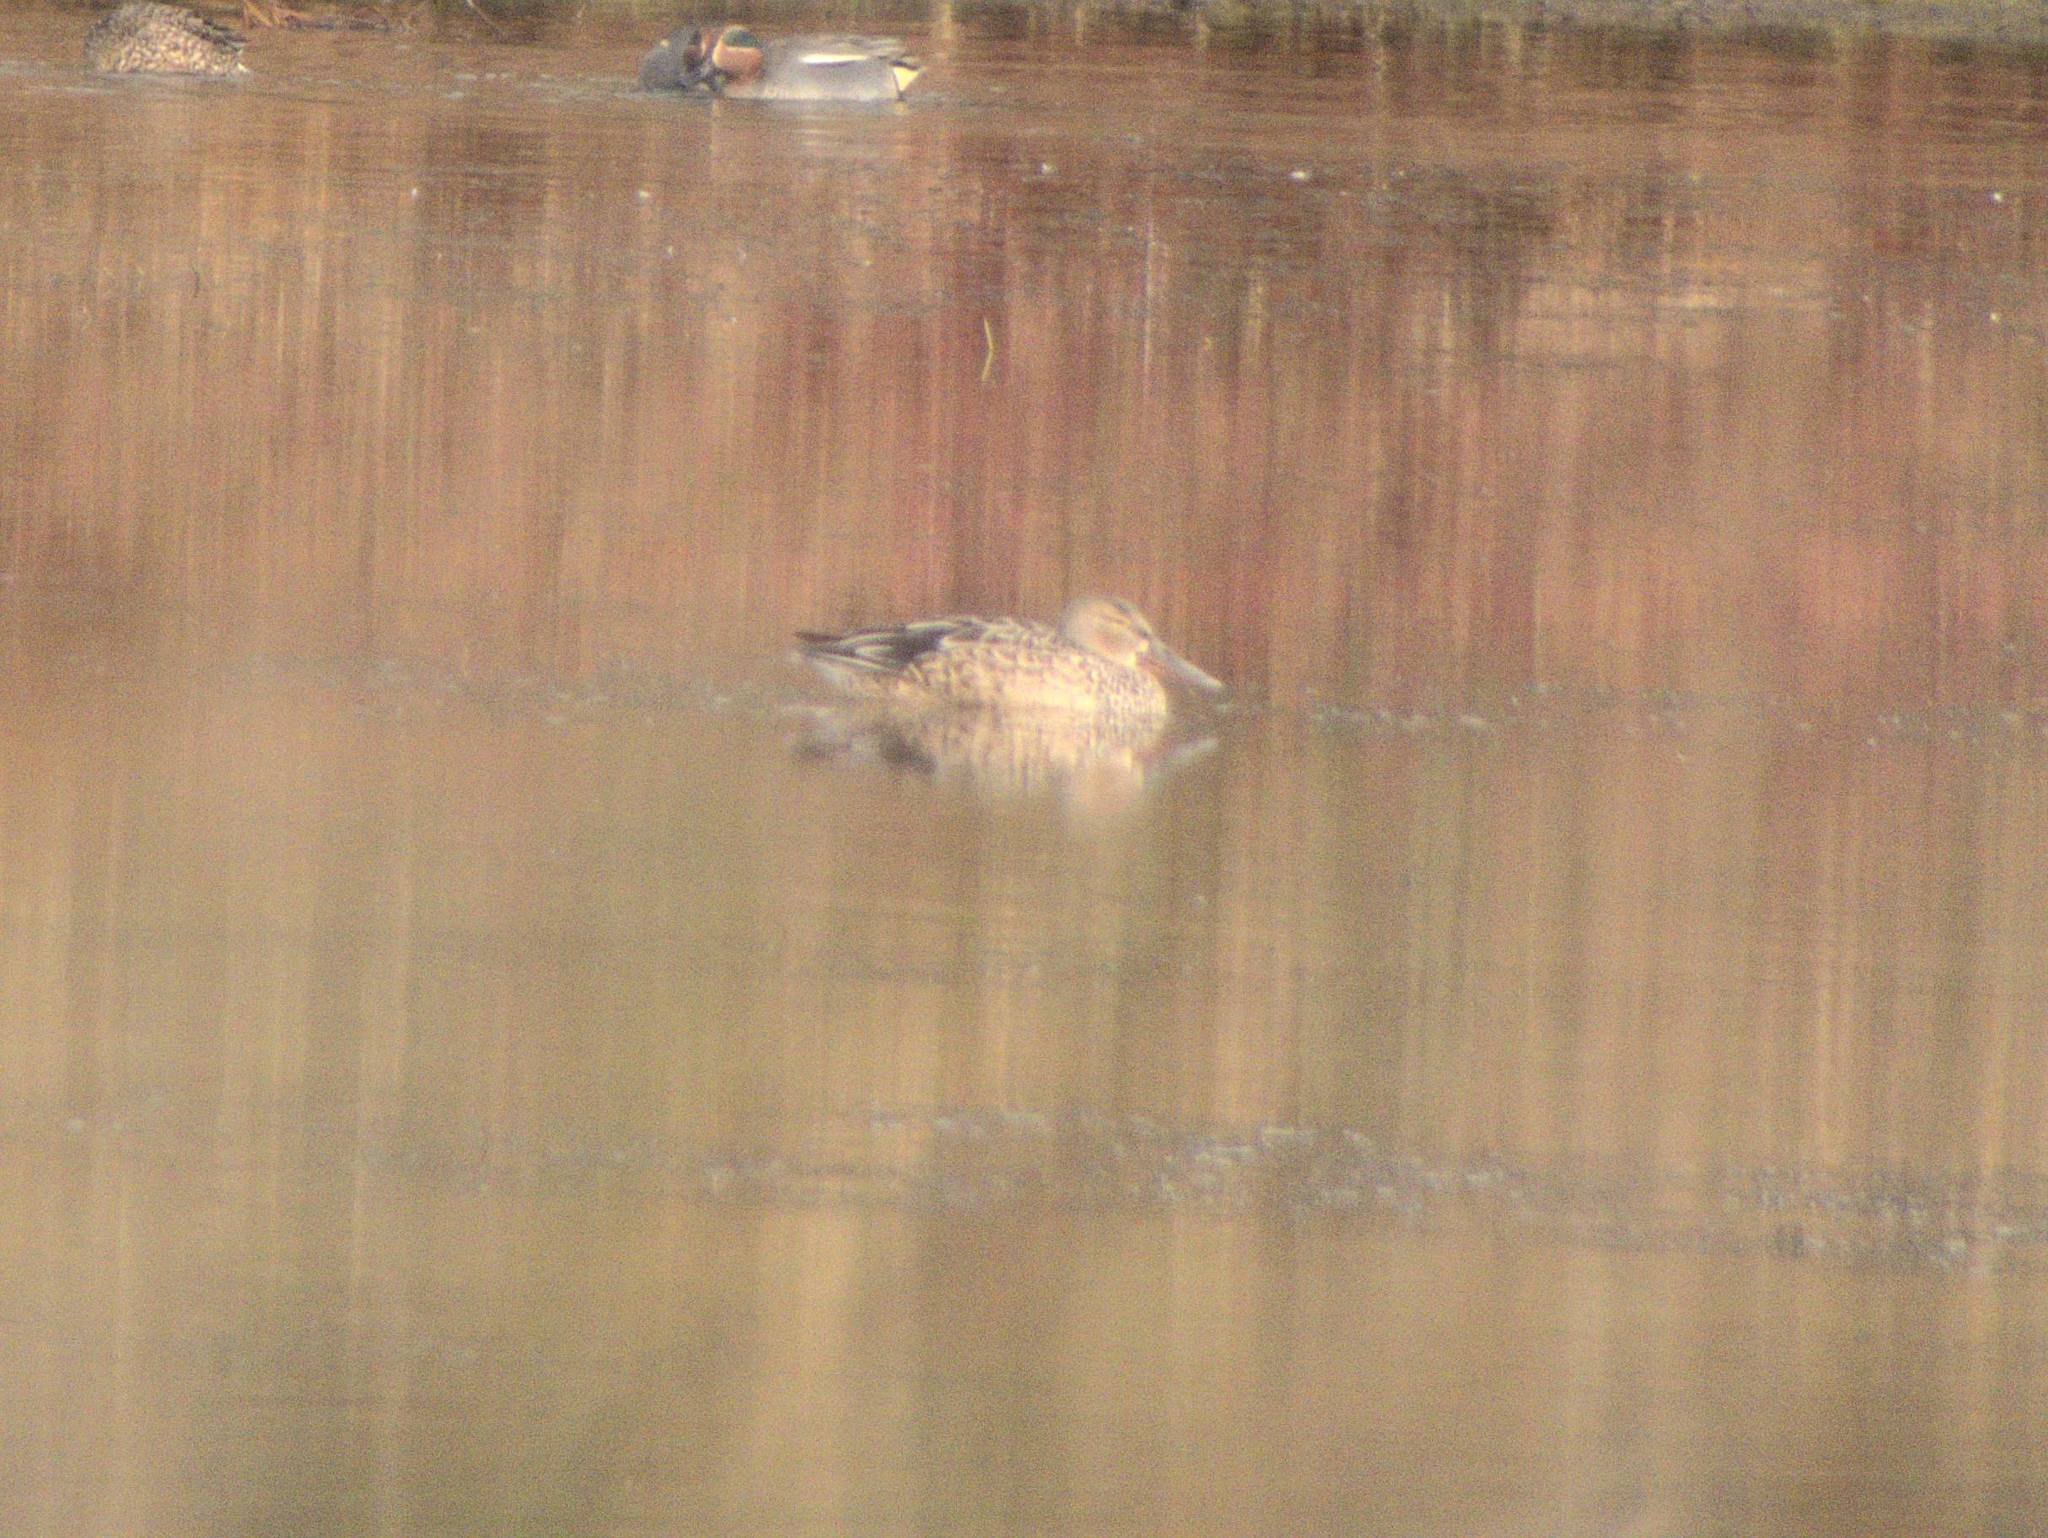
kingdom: Animalia
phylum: Chordata
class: Aves
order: Anseriformes
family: Anatidae
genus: Spatula
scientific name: Spatula clypeata
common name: Northern shoveler
